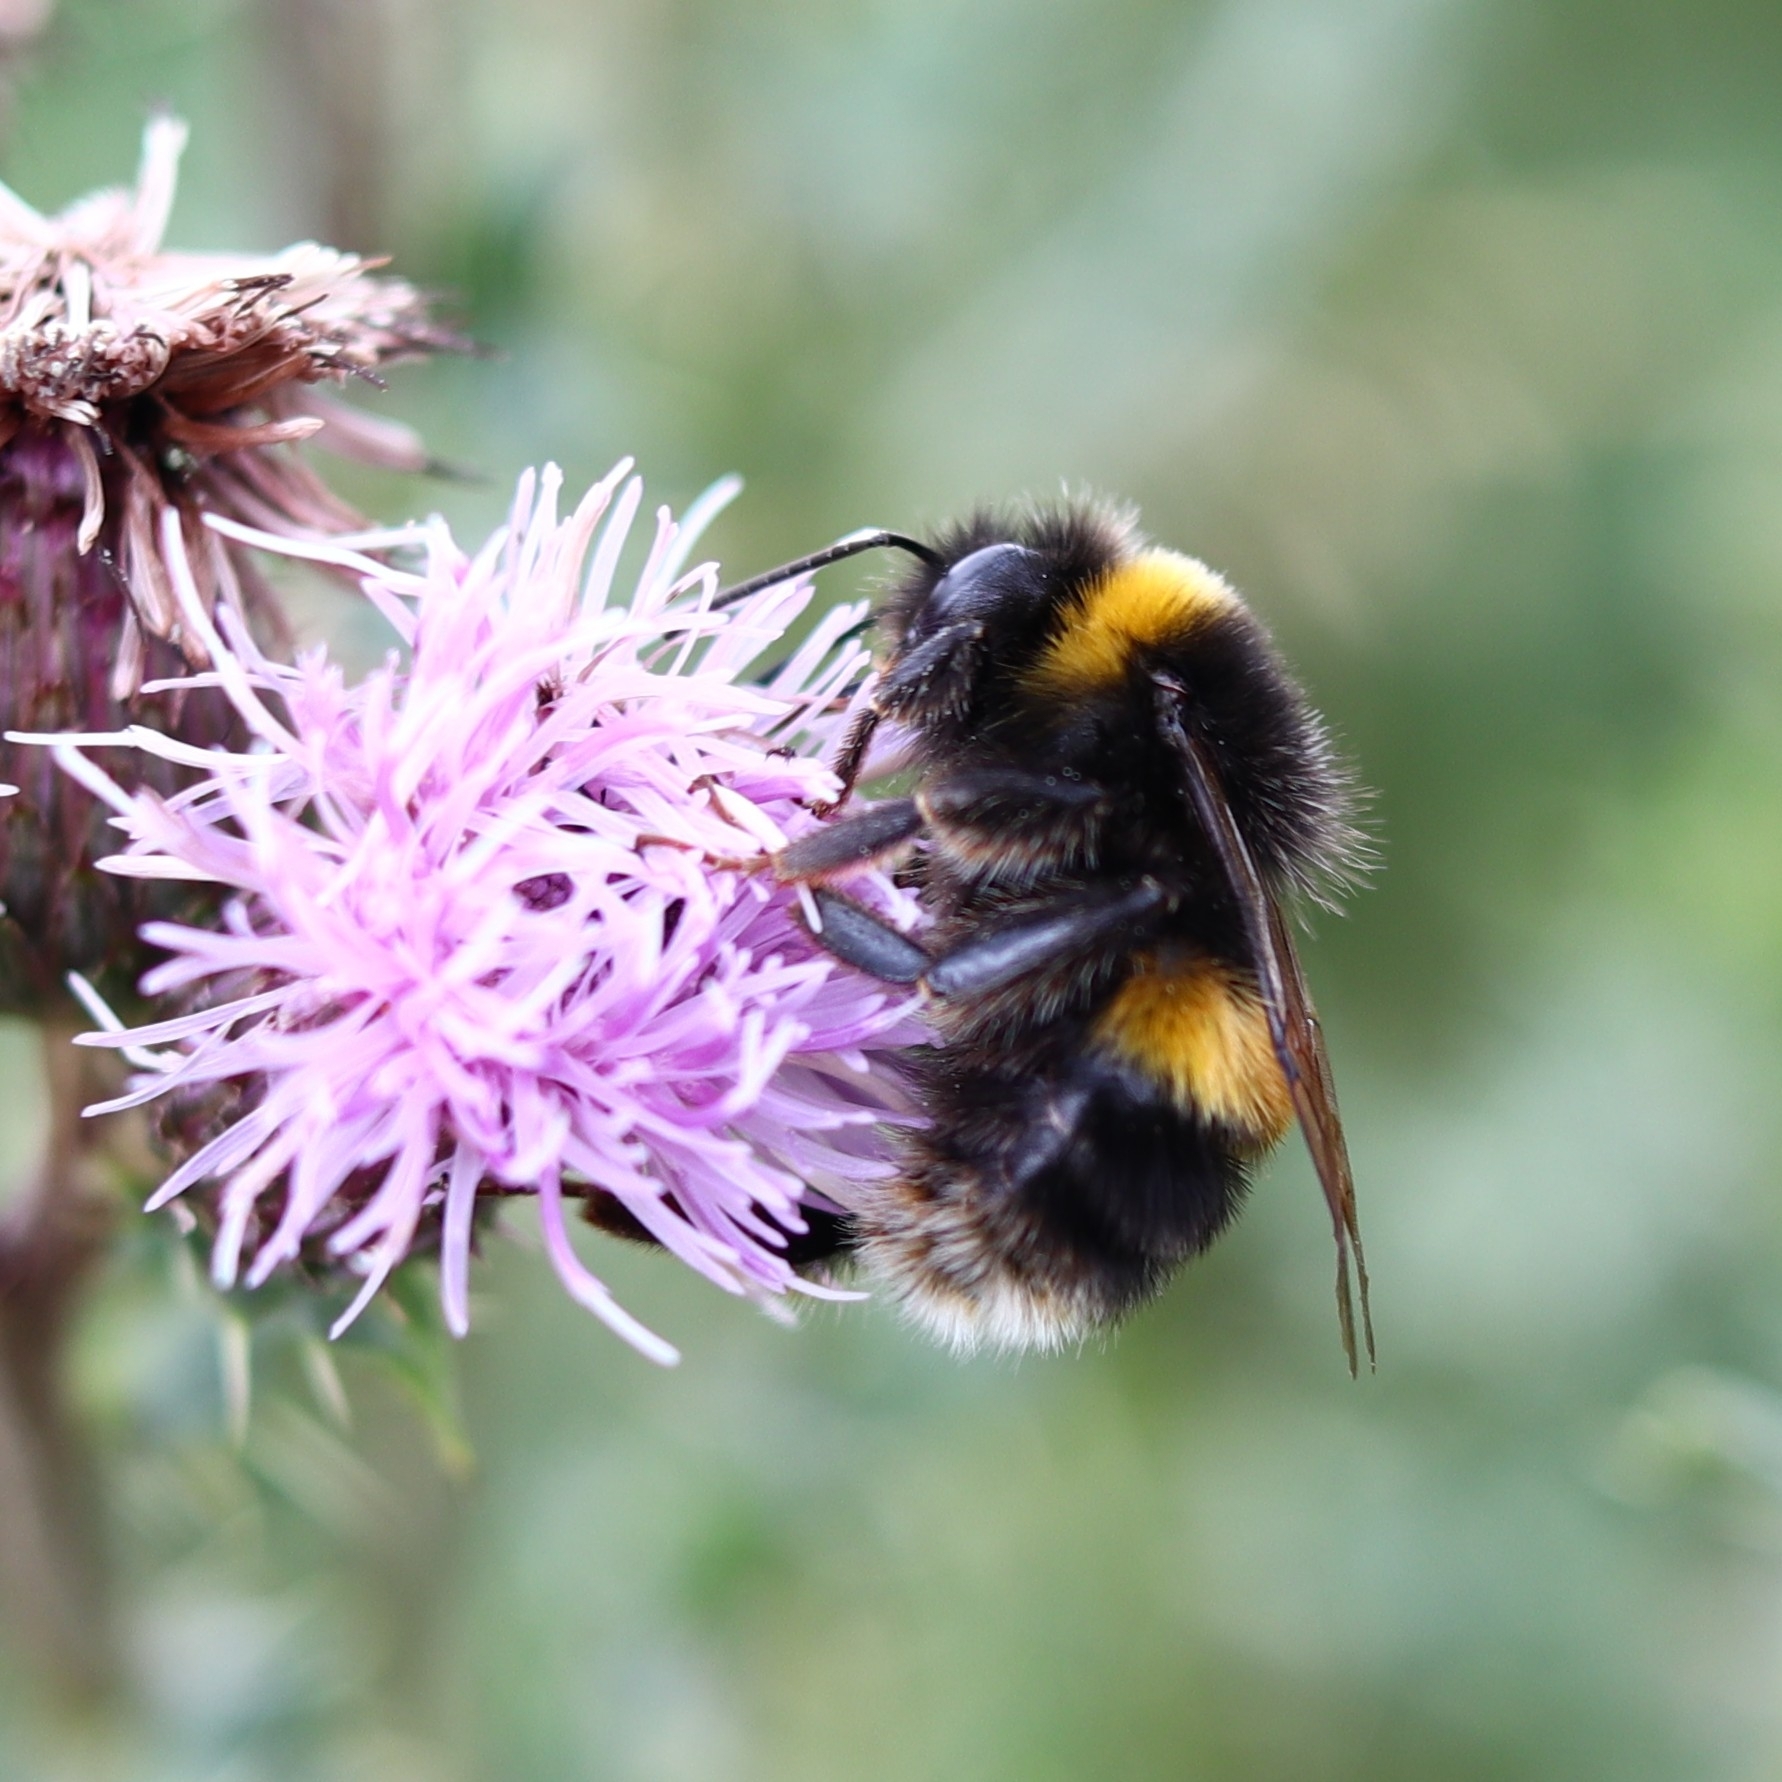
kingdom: Animalia
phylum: Arthropoda
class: Insecta
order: Hymenoptera
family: Apidae
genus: Bombus
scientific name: Bombus terrestris
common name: Buff-tailed bumblebee
